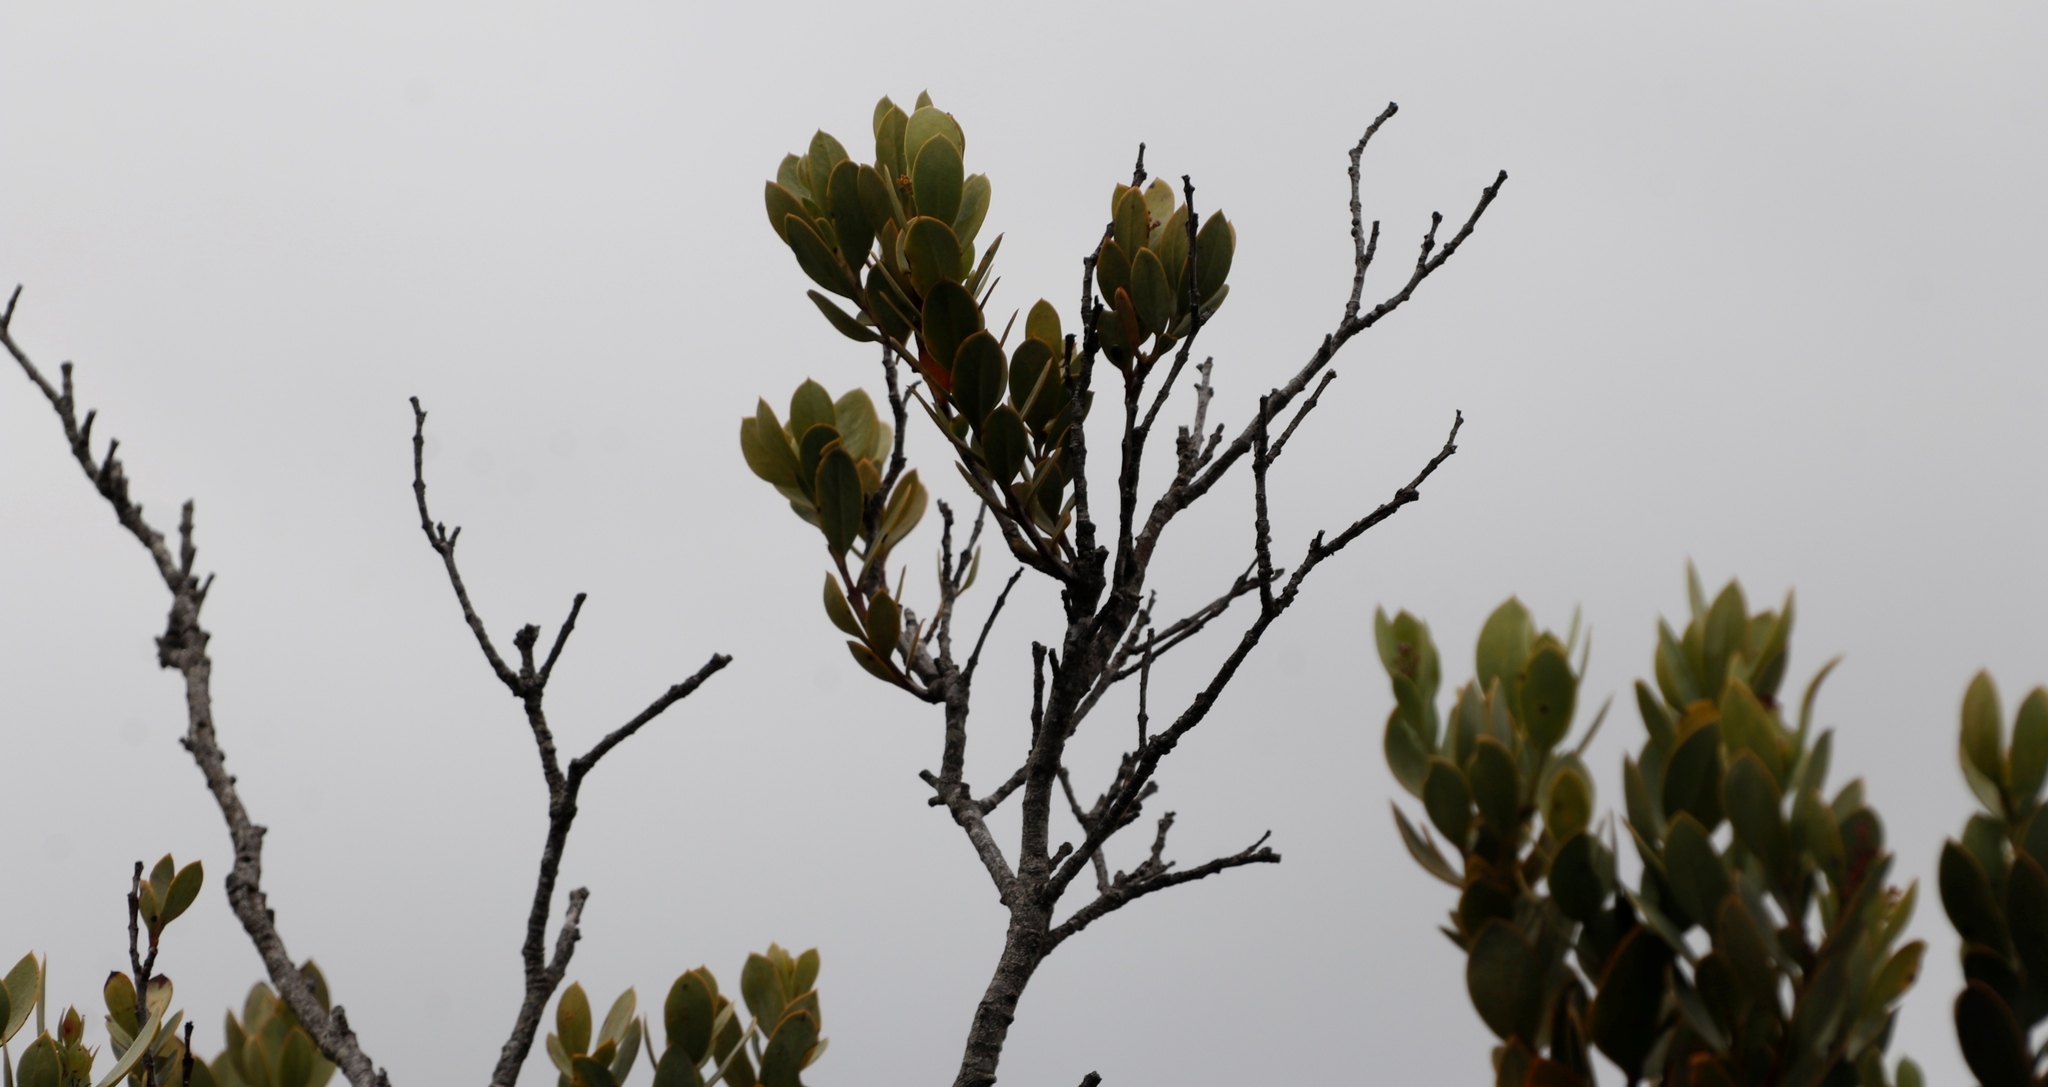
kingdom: Plantae
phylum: Tracheophyta
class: Magnoliopsida
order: Santalales
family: Santalaceae
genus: Osyris
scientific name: Osyris compressa
